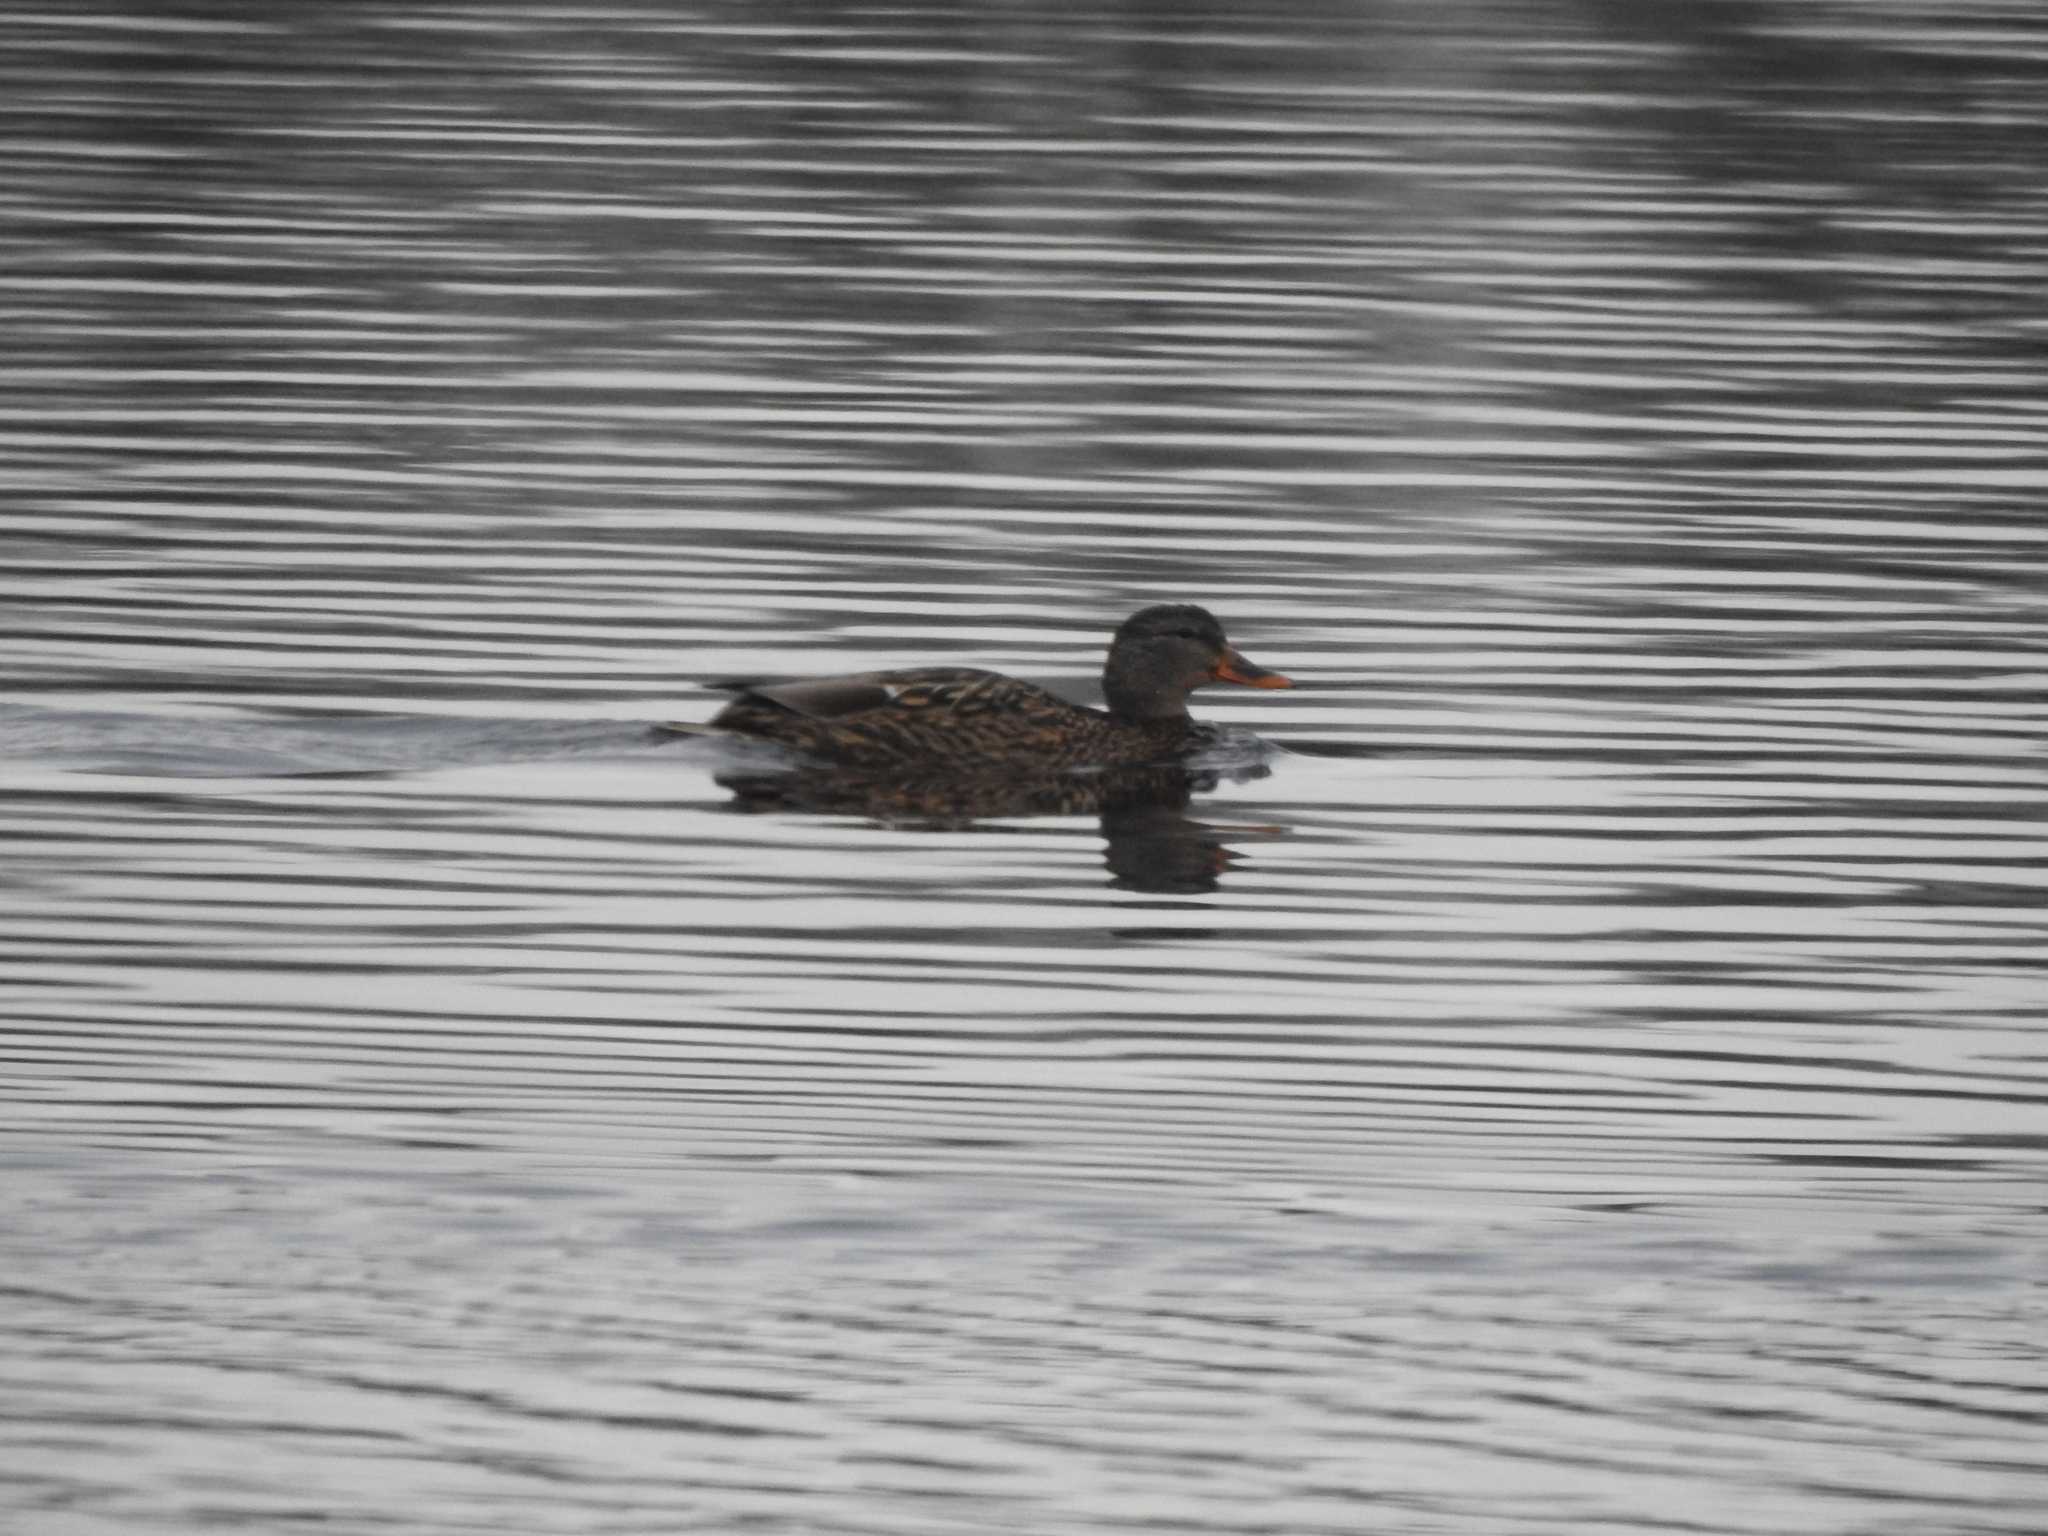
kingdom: Animalia
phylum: Chordata
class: Aves
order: Anseriformes
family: Anatidae
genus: Anas
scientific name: Anas platyrhynchos
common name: Mallard
